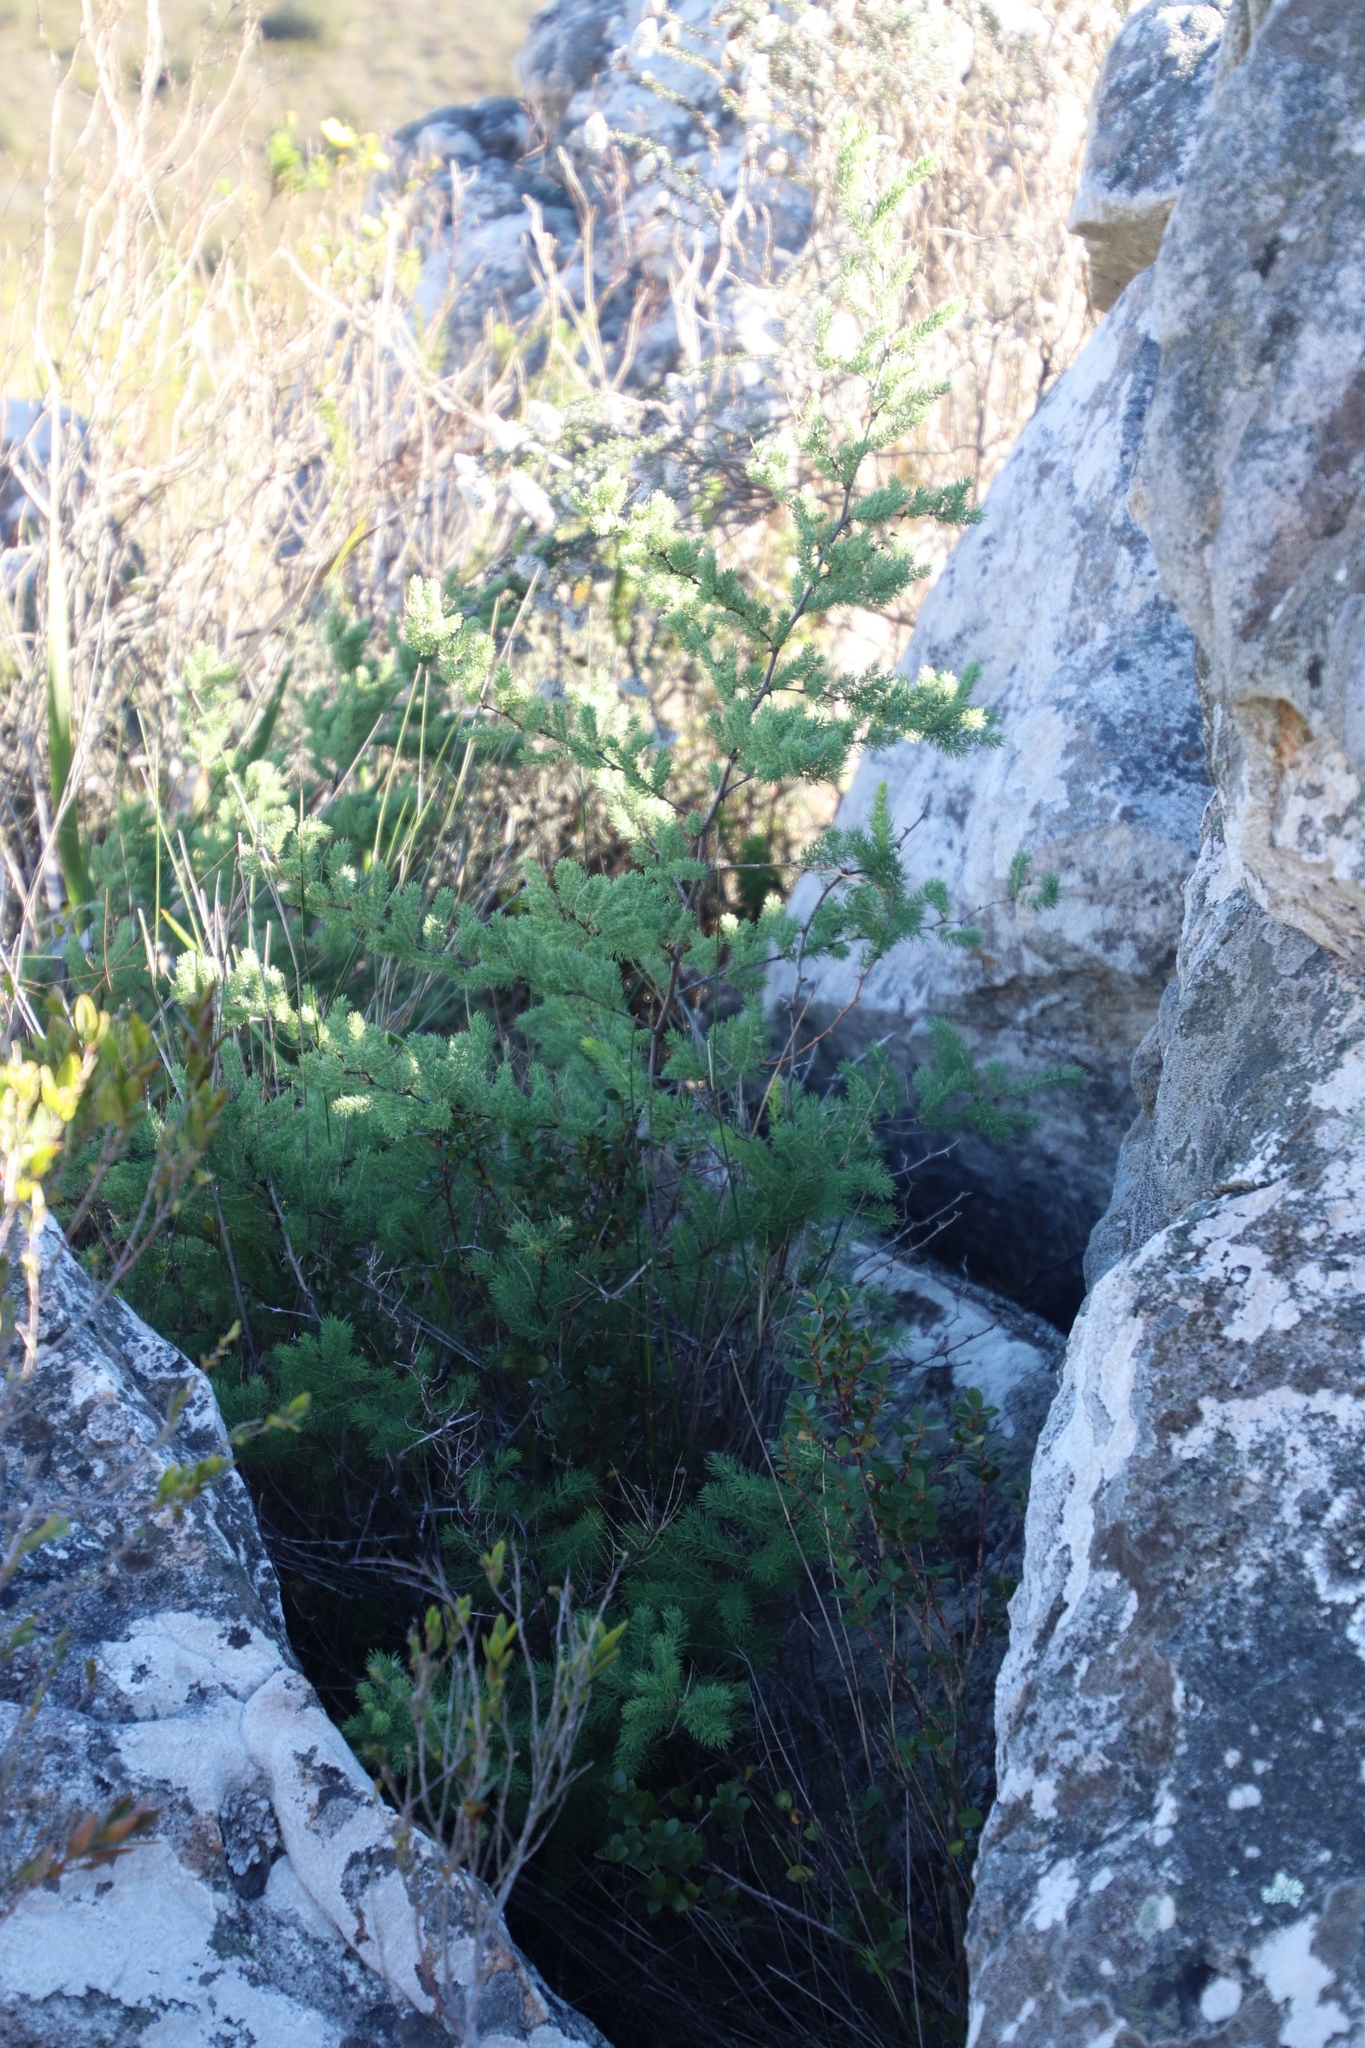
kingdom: Plantae
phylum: Tracheophyta
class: Liliopsida
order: Asparagales
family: Asparagaceae
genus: Asparagus
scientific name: Asparagus rubicundus
